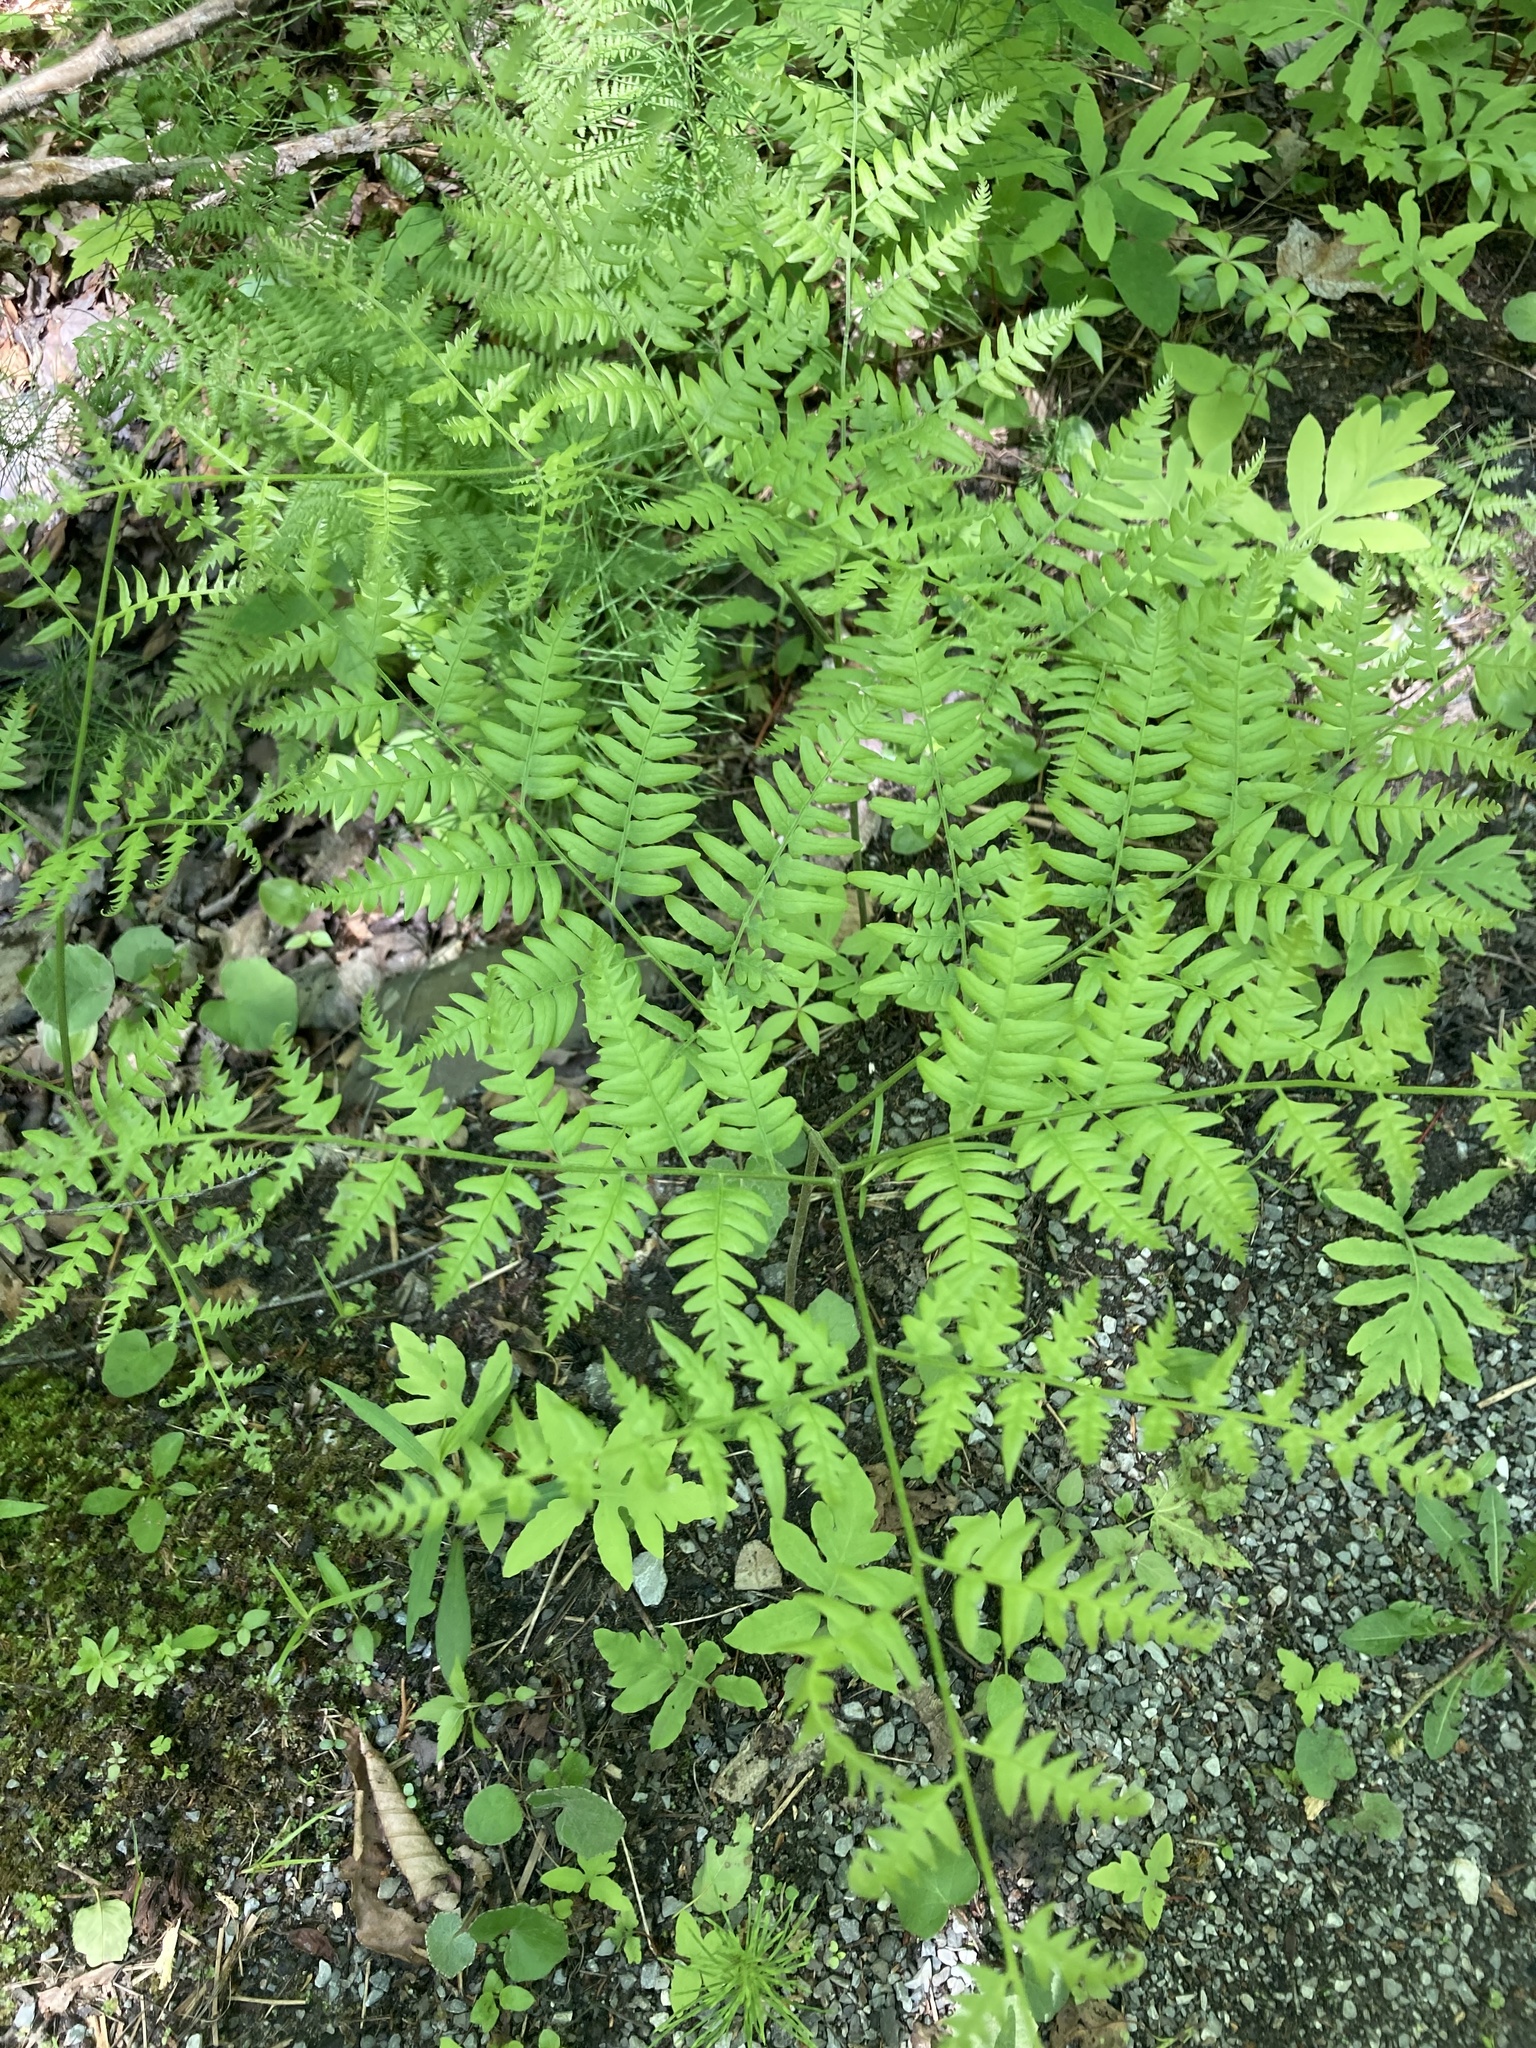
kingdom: Plantae
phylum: Tracheophyta
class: Polypodiopsida
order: Polypodiales
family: Dennstaedtiaceae
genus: Pteridium
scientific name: Pteridium aquilinum
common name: Bracken
